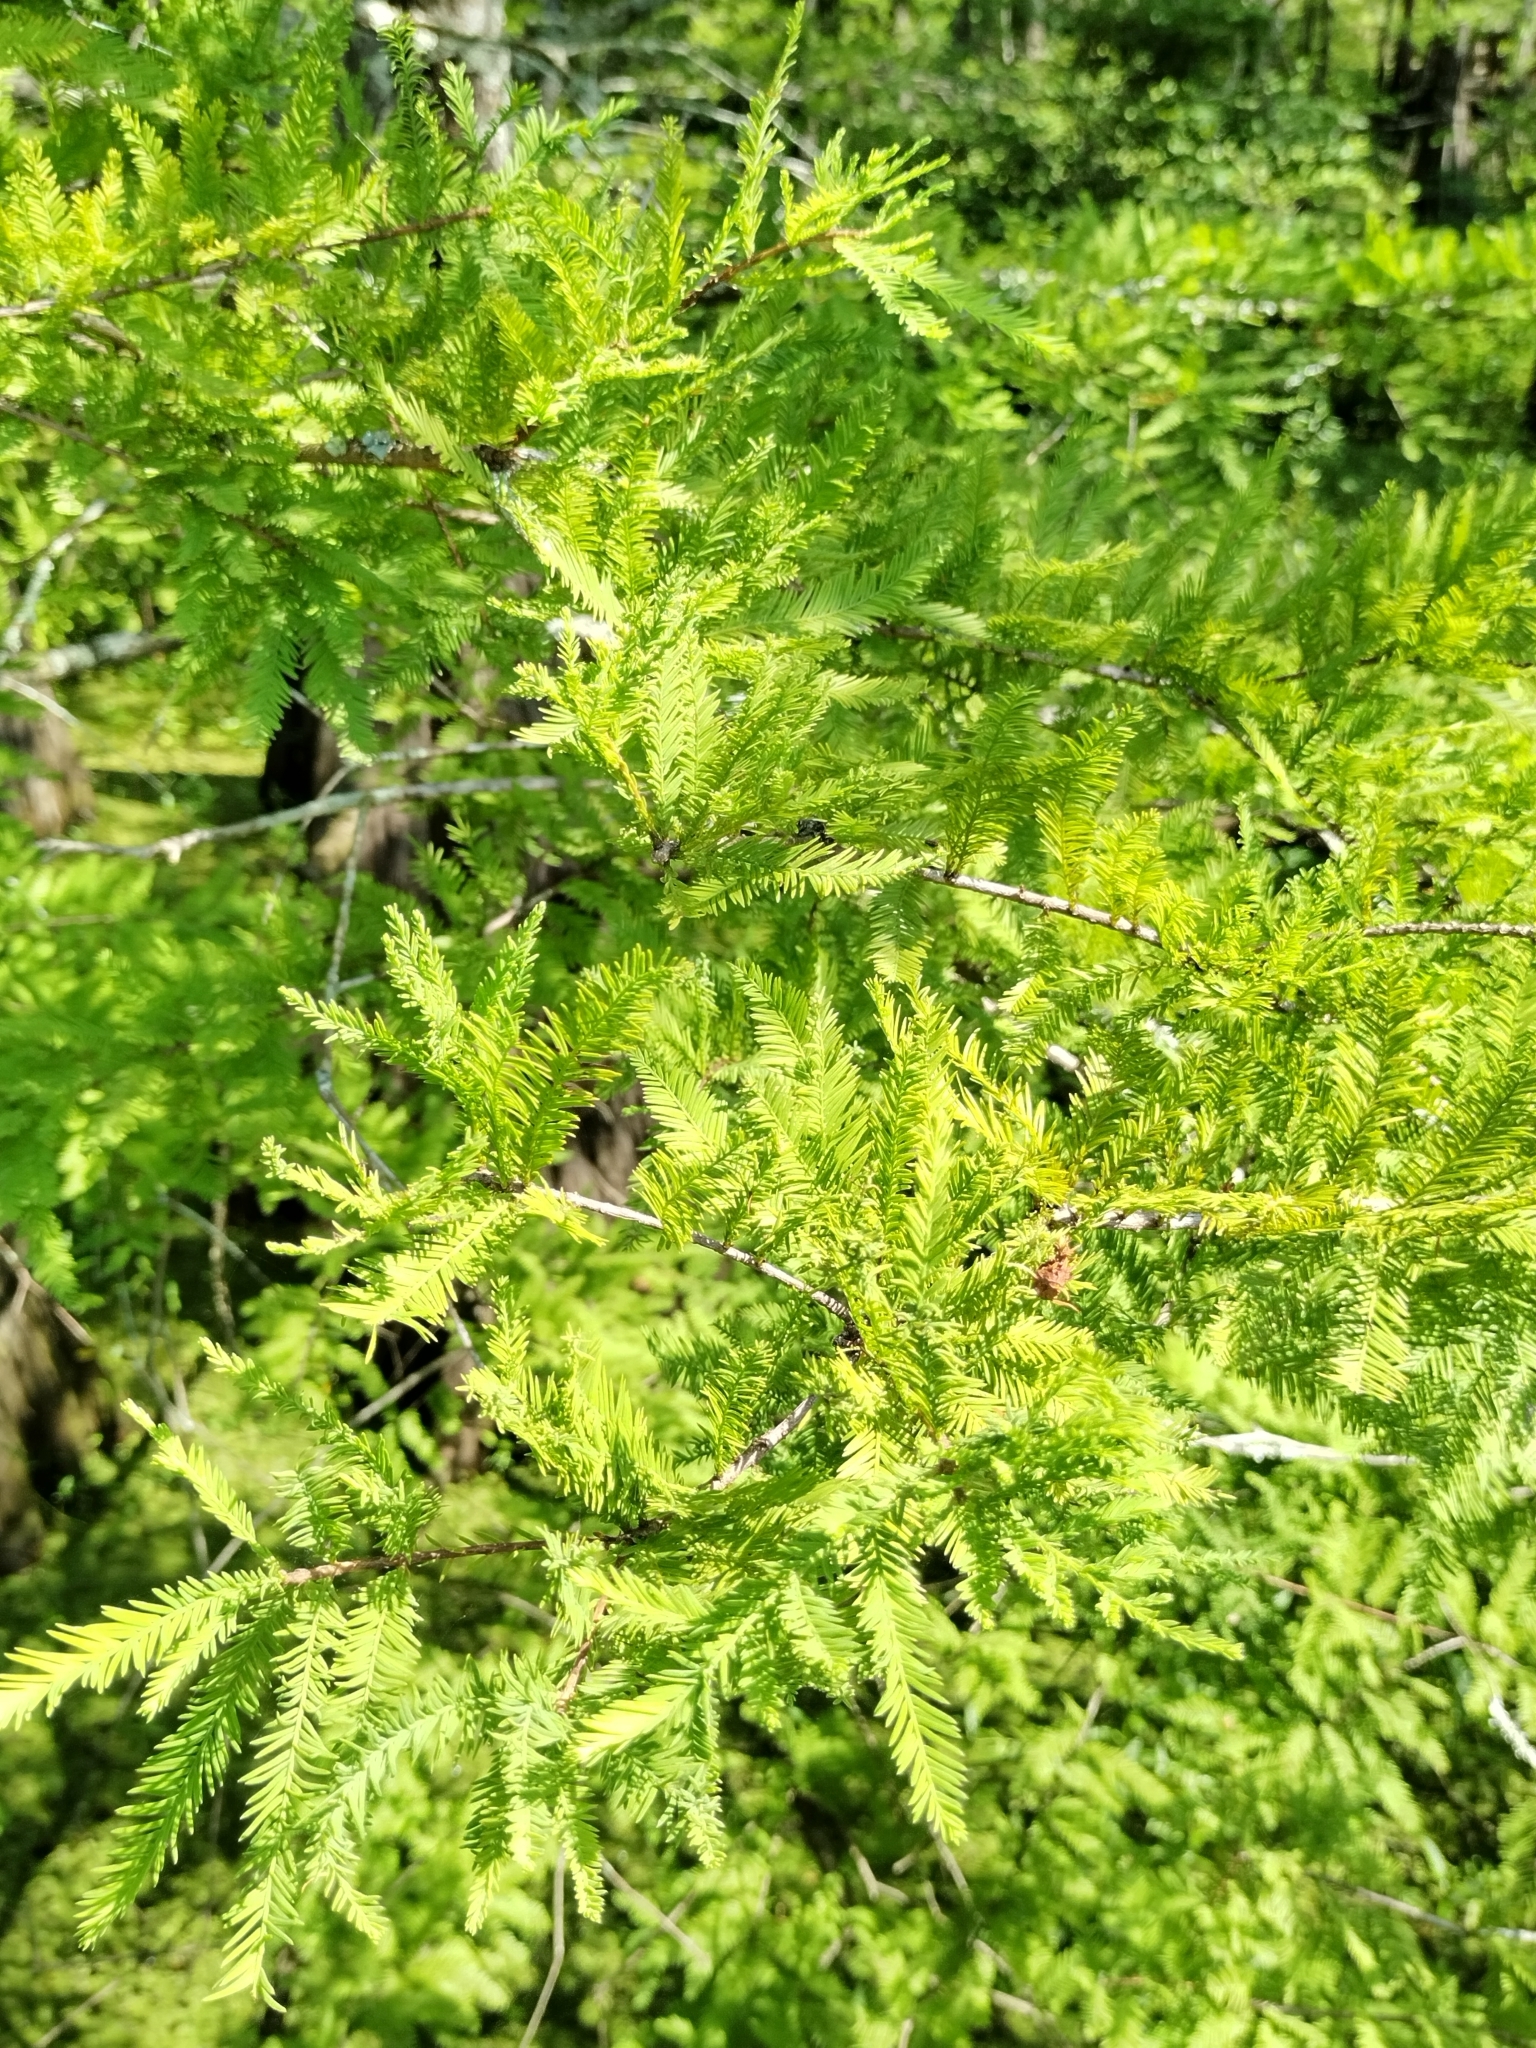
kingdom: Plantae
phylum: Tracheophyta
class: Pinopsida
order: Pinales
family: Cupressaceae
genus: Taxodium
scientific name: Taxodium distichum
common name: Bald cypress
